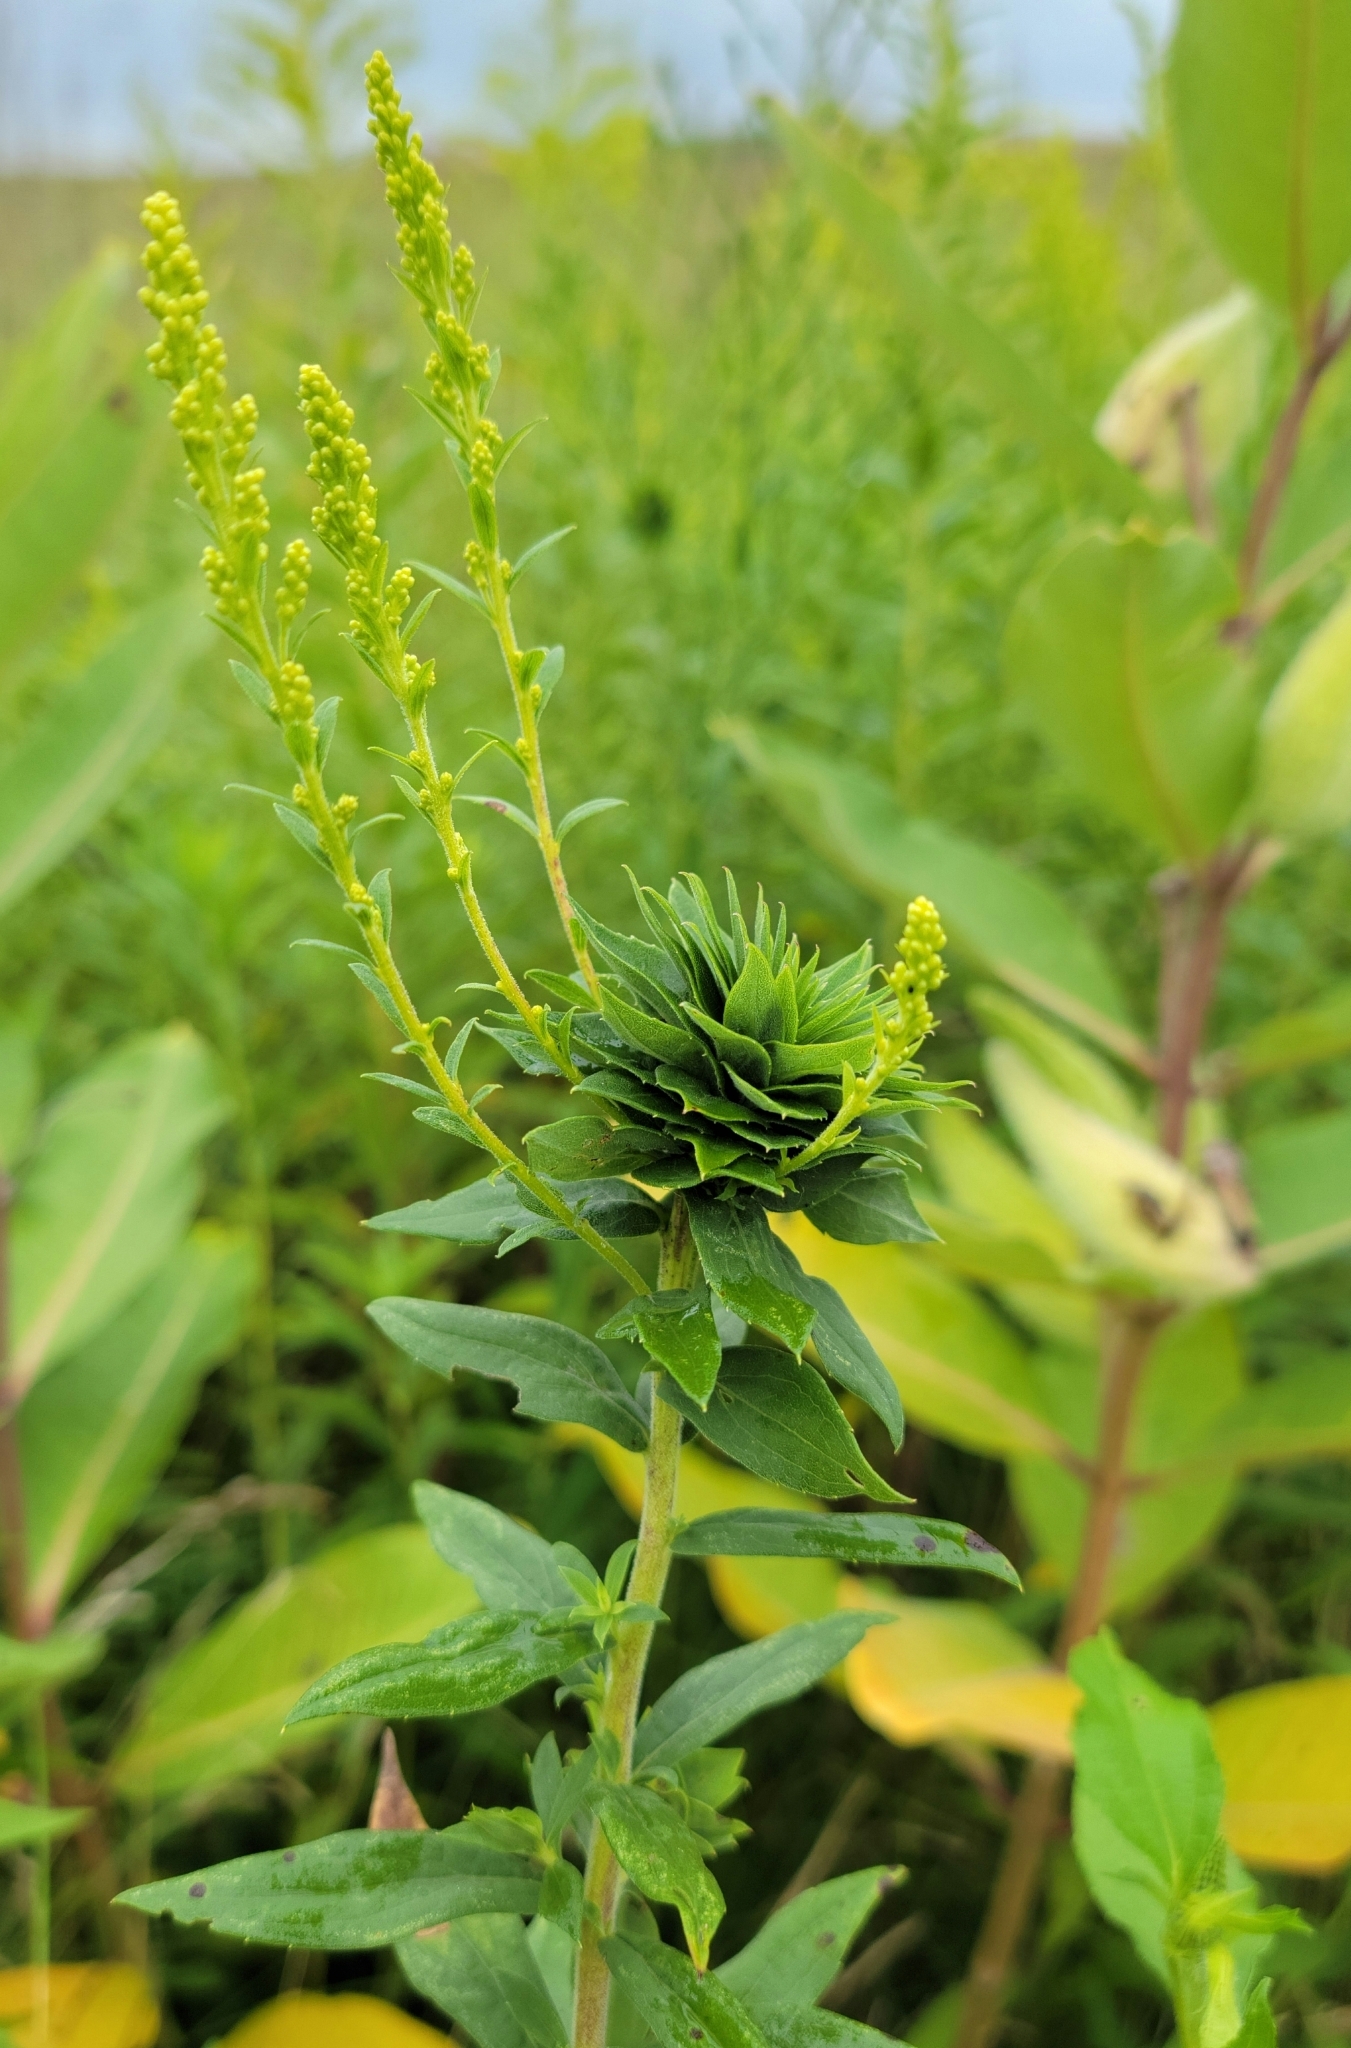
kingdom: Animalia
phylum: Arthropoda
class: Insecta
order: Diptera
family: Cecidomyiidae
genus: Rhopalomyia
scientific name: Rhopalomyia solidaginis
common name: Goldenrod bunch gall midge
